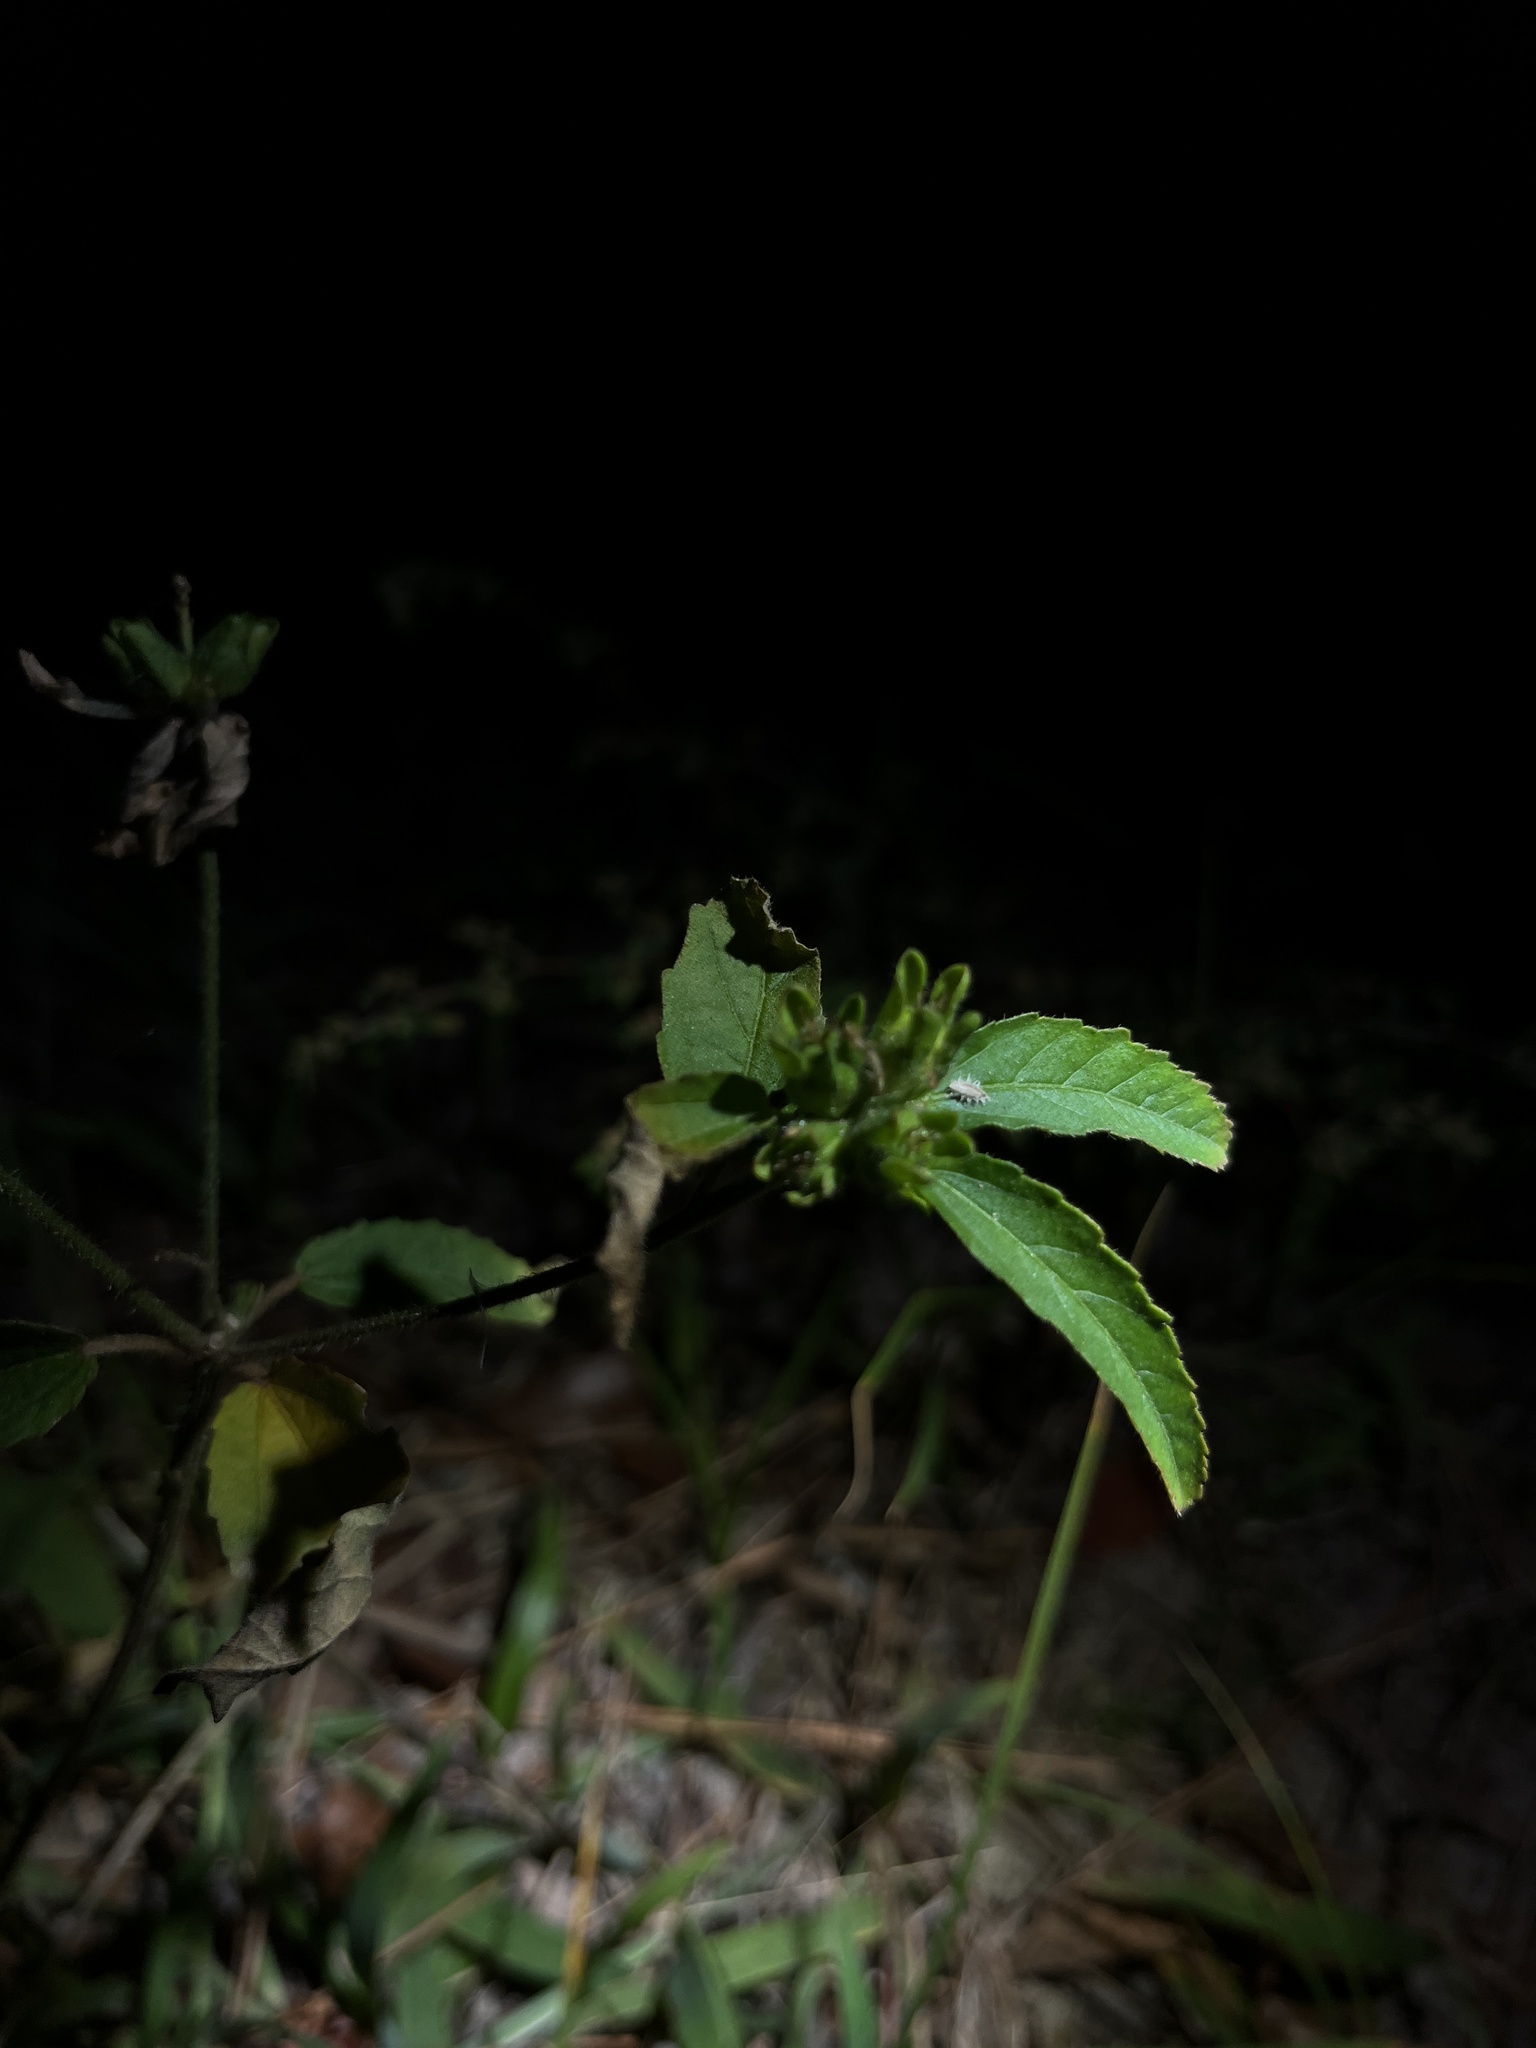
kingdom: Plantae
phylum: Tracheophyta
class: Magnoliopsida
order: Malpighiales
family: Euphorbiaceae
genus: Croton
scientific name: Croton glandulosus
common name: Tropic croton
